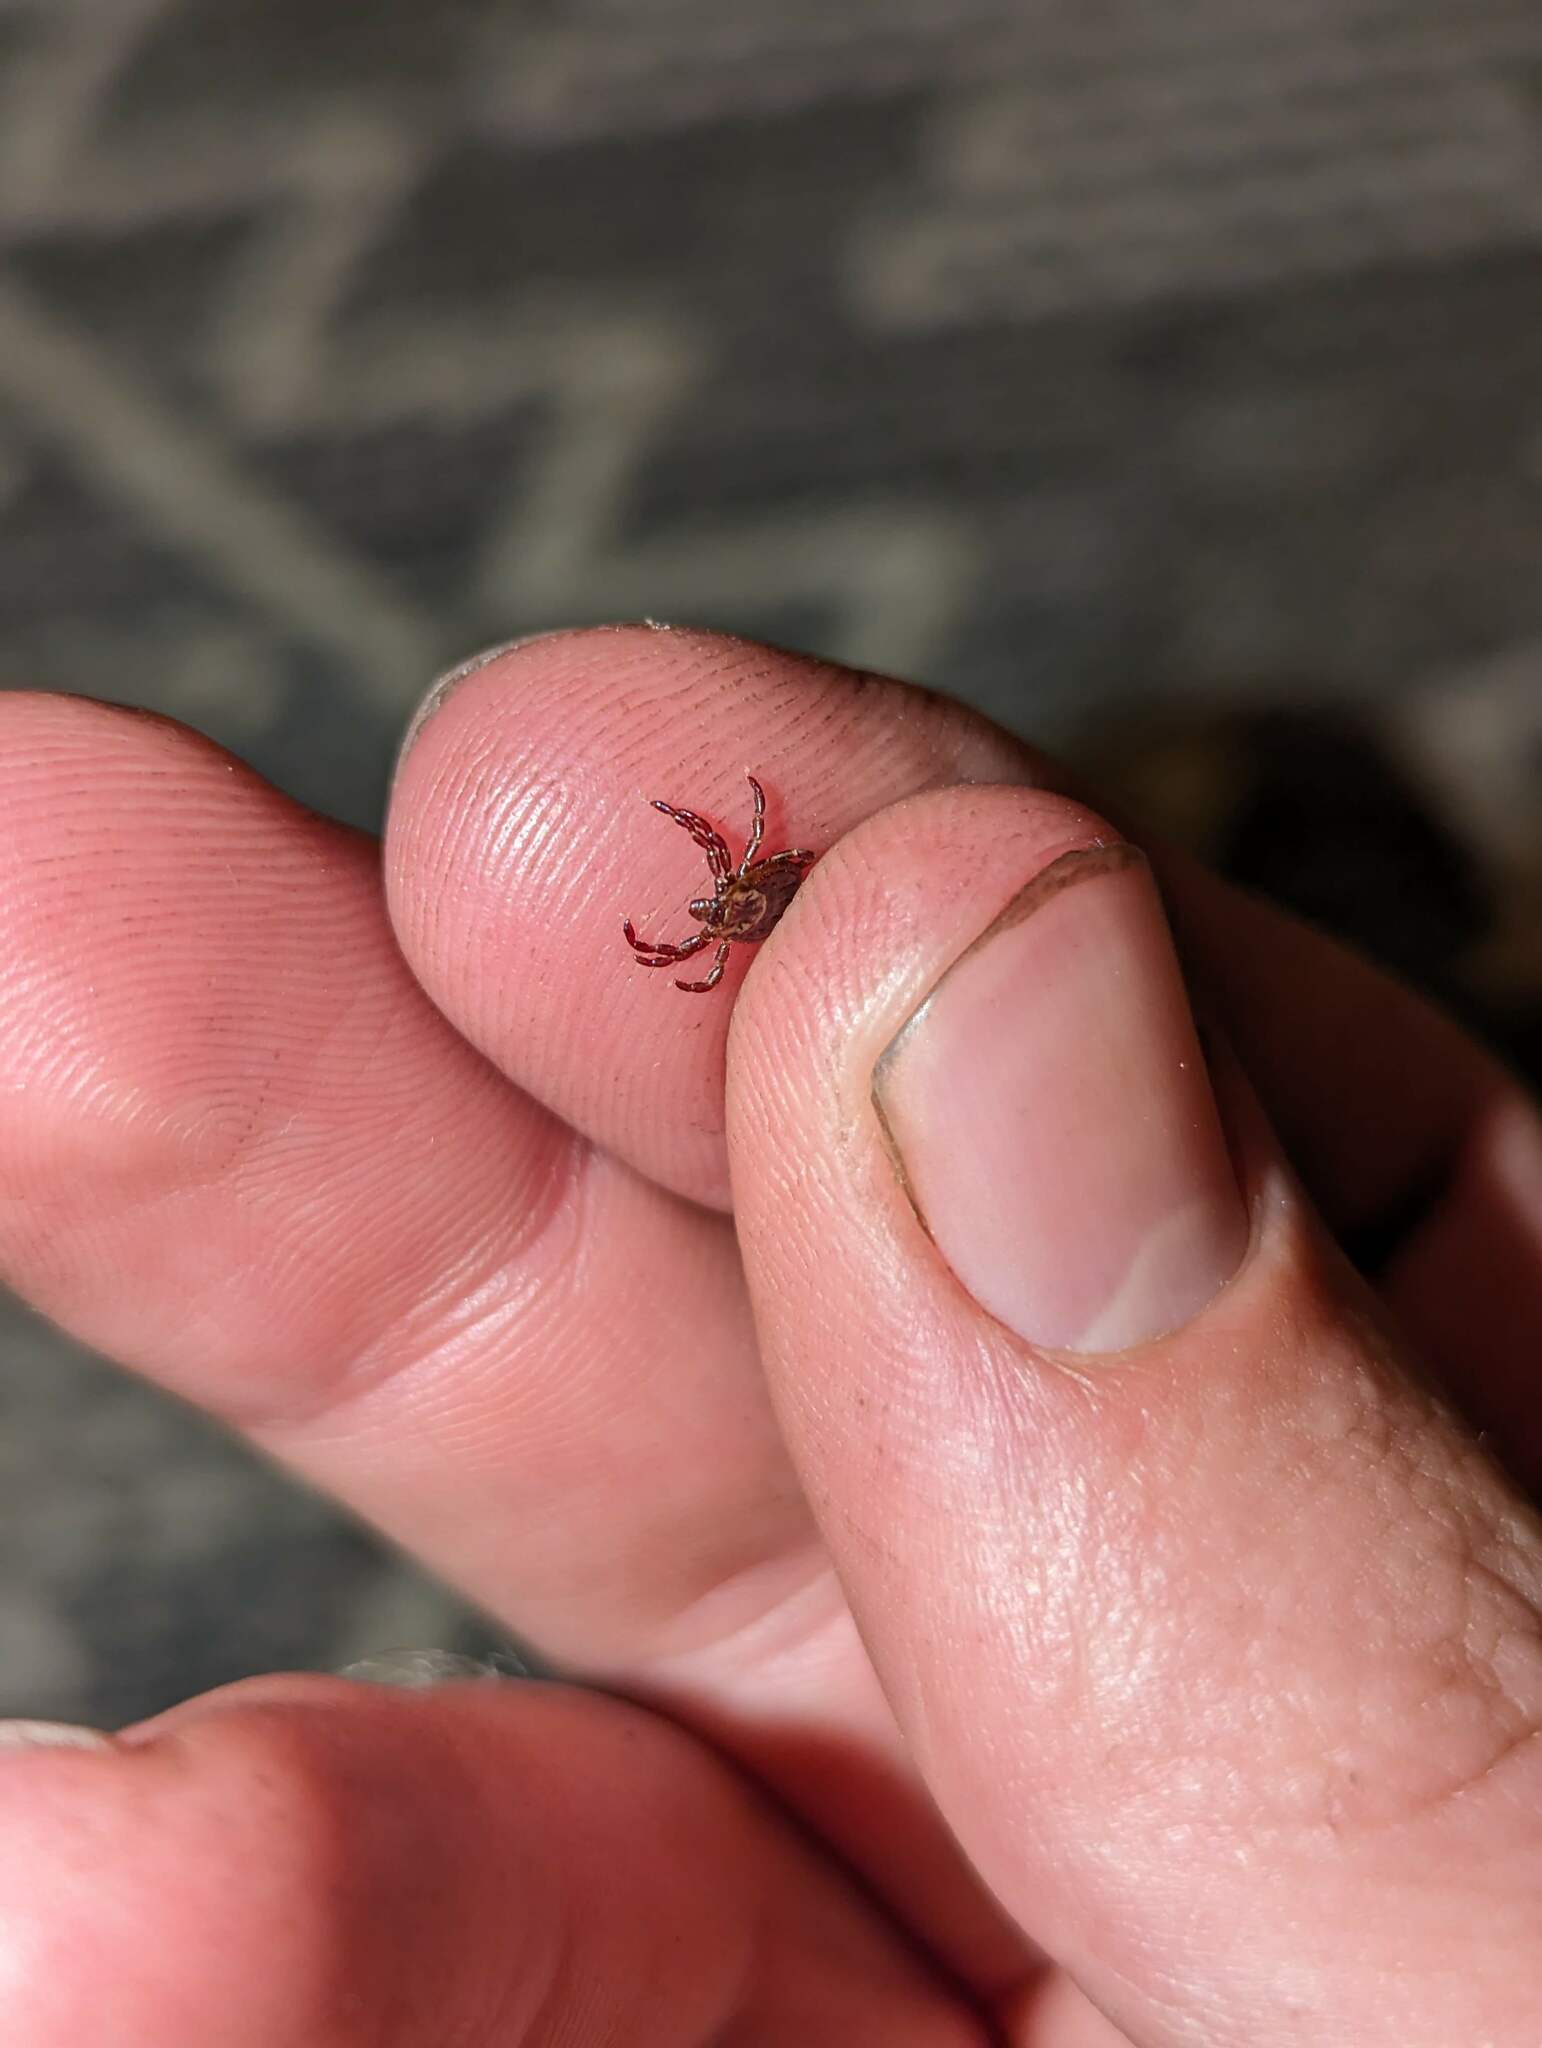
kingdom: Animalia
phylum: Arthropoda
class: Arachnida
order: Ixodida
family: Ixodidae
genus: Dermacentor
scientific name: Dermacentor variabilis
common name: American dog tick
